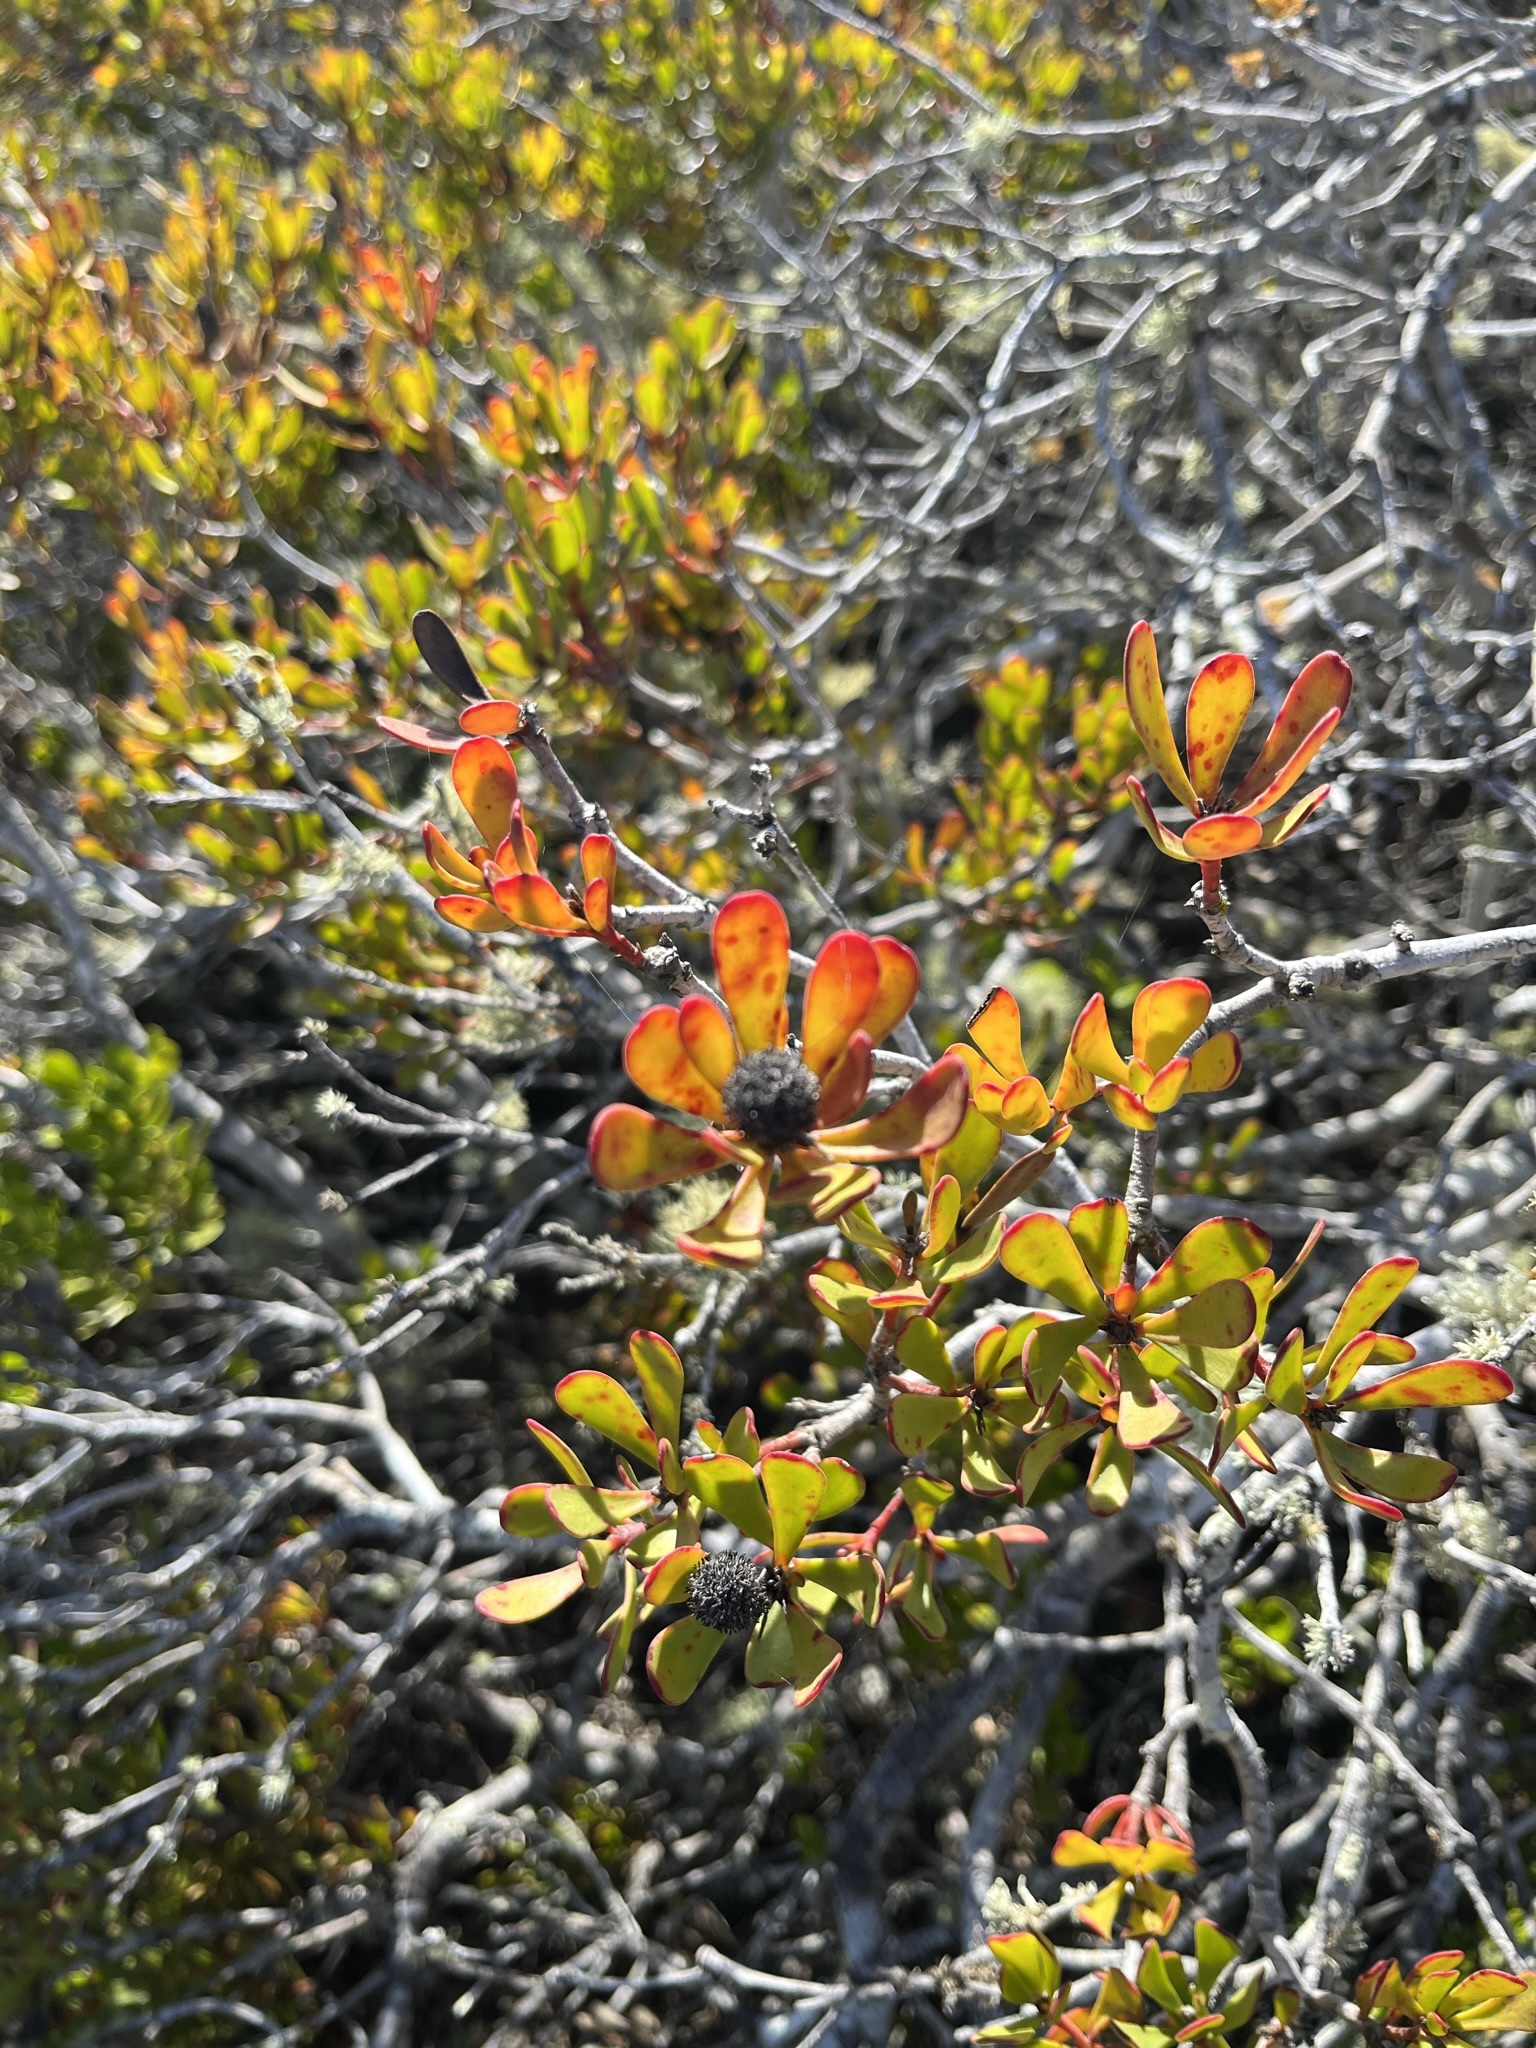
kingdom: Plantae
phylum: Tracheophyta
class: Magnoliopsida
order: Proteales
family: Proteaceae
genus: Leucadendron
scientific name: Leucadendron muirii
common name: Silver-ball conebush
